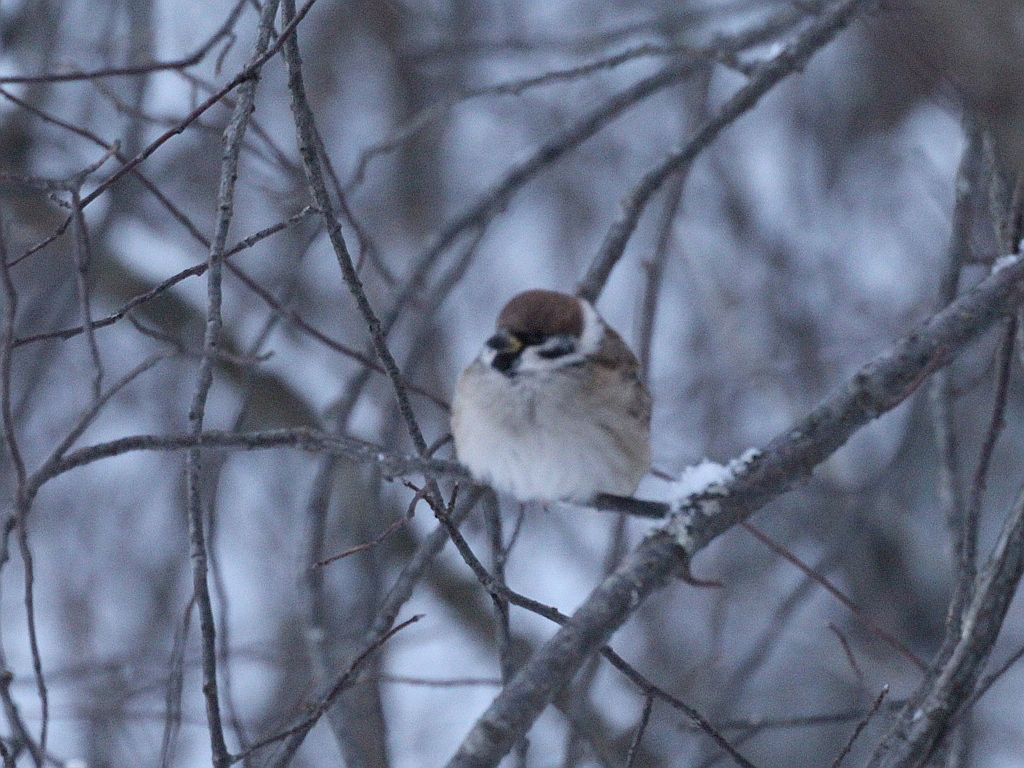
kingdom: Animalia
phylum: Chordata
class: Aves
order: Passeriformes
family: Passeridae
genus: Passer
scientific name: Passer montanus
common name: Eurasian tree sparrow
